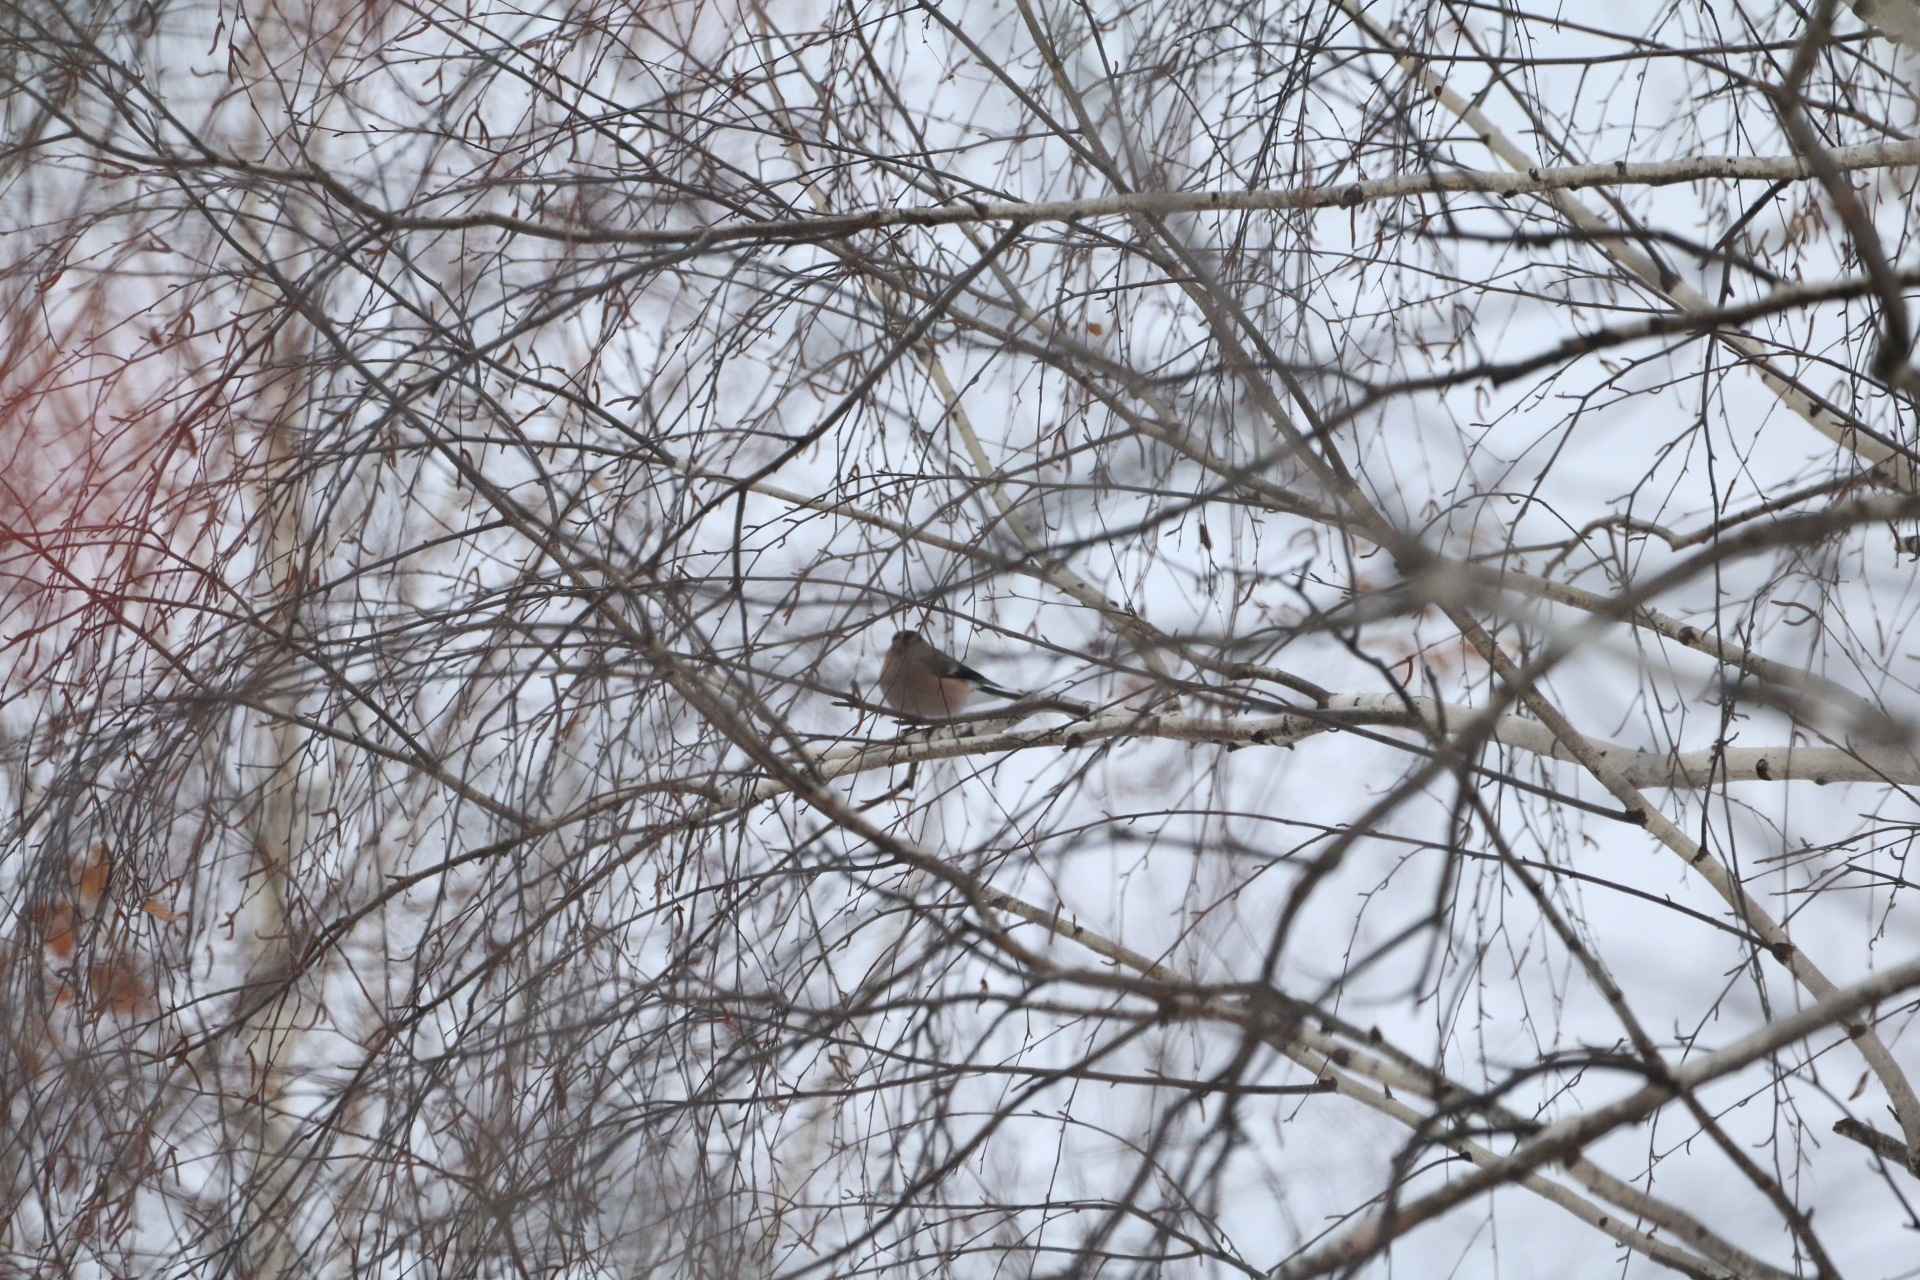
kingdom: Animalia
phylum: Chordata
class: Aves
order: Passeriformes
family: Fringillidae
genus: Pyrrhula
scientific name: Pyrrhula pyrrhula
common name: Eurasian bullfinch
